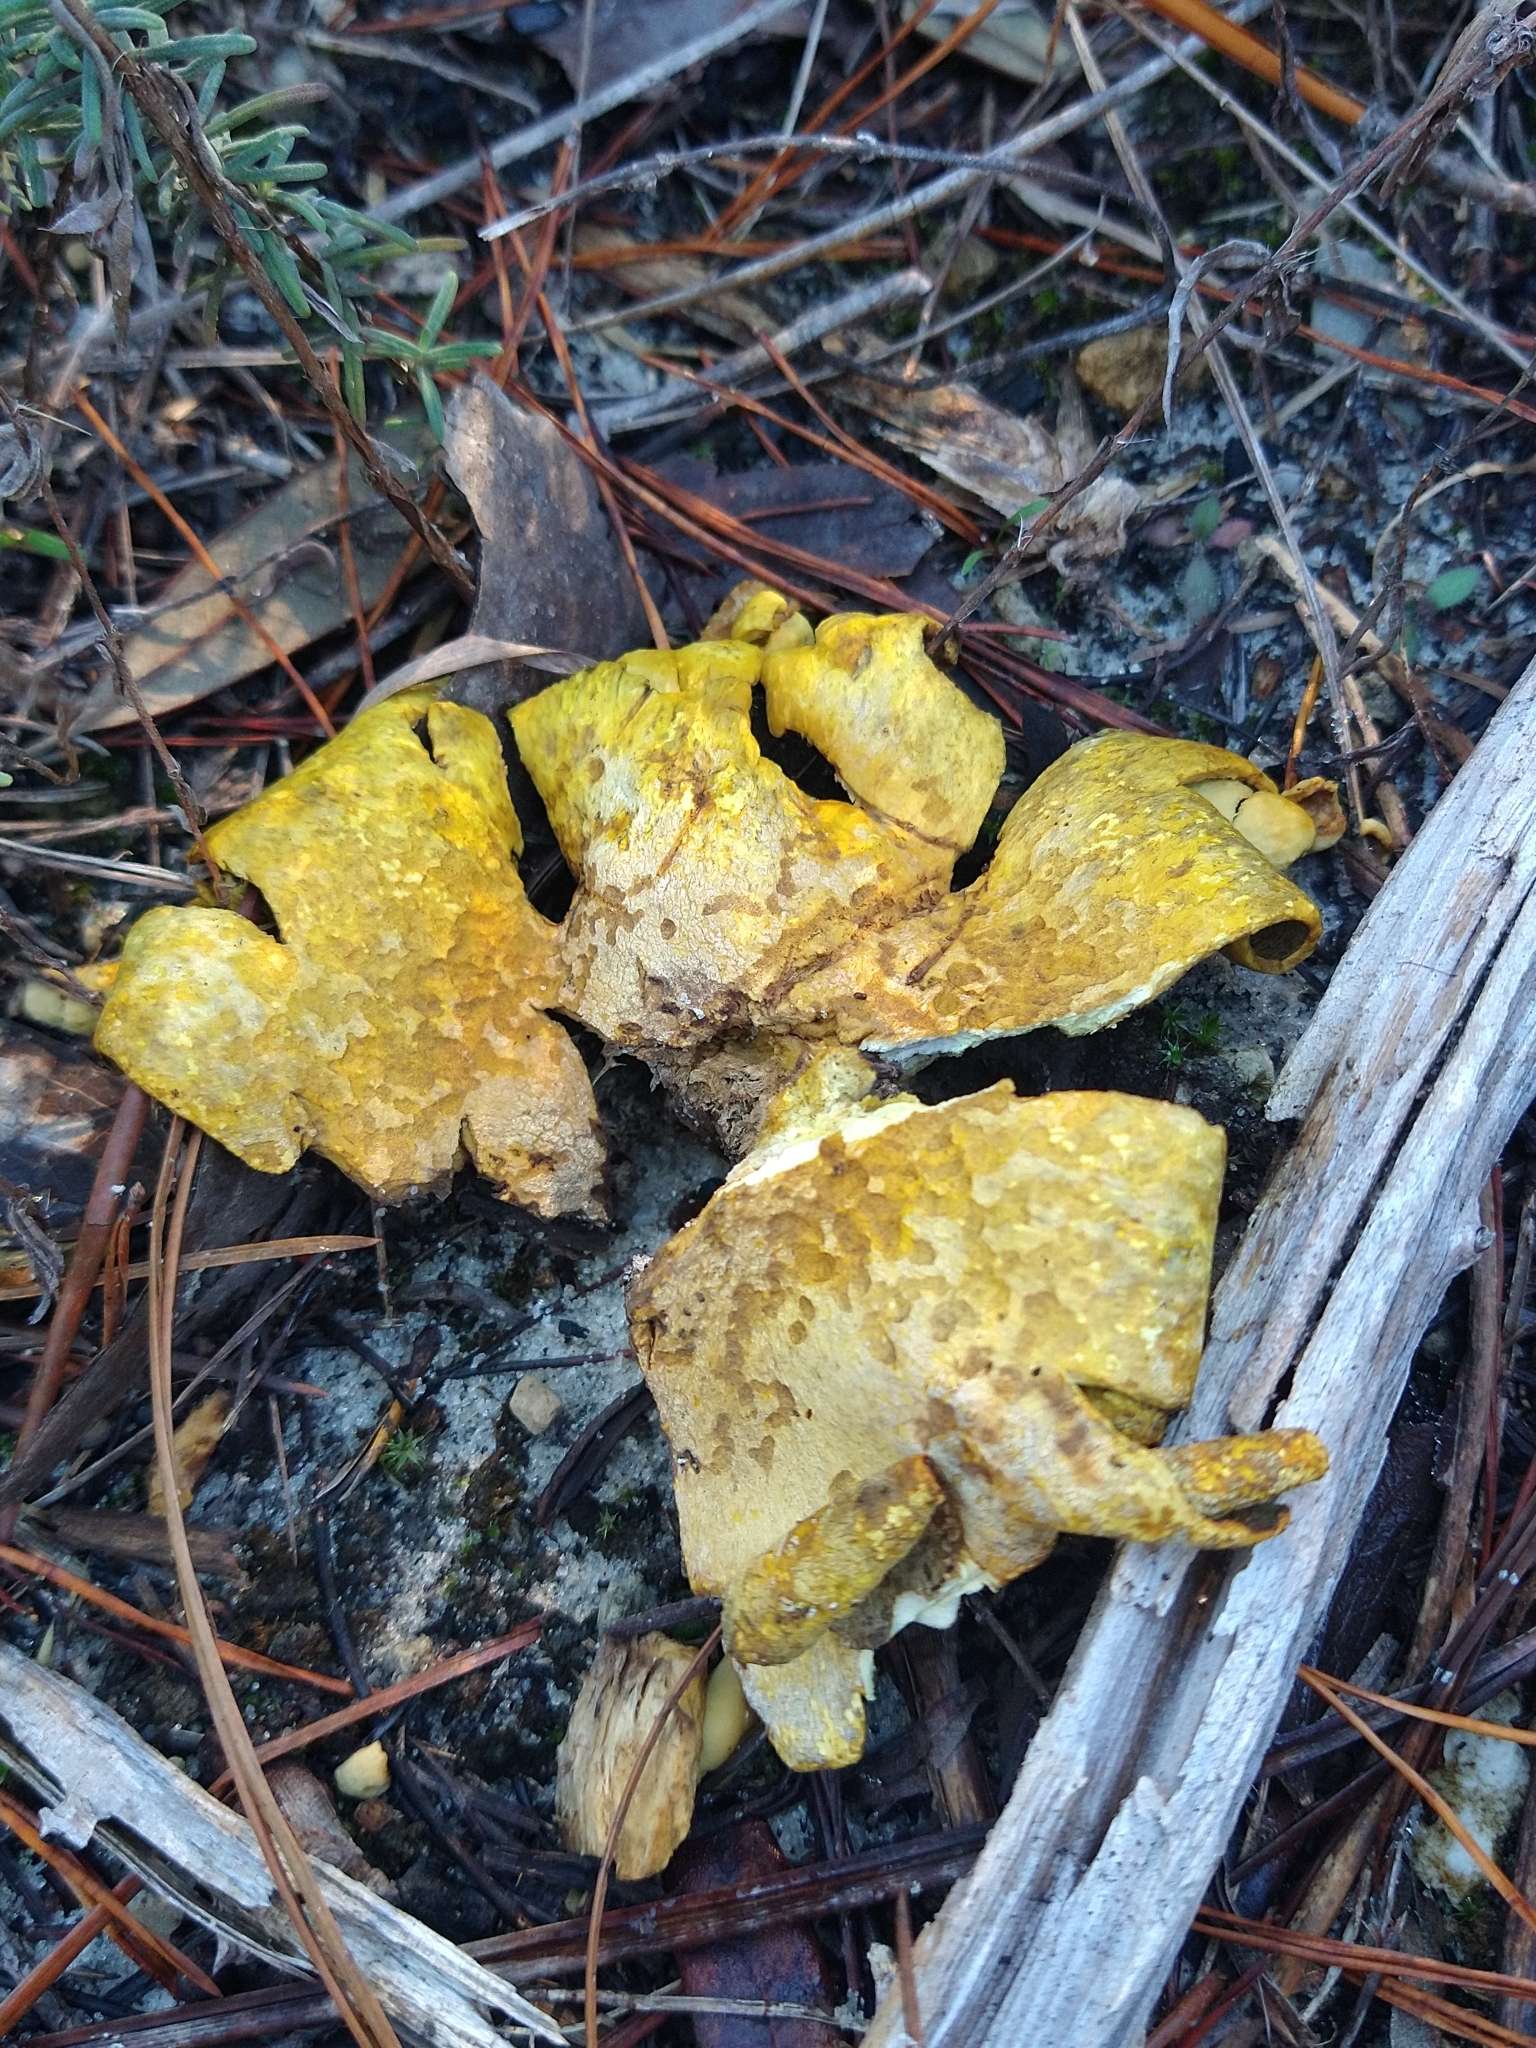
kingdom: Fungi
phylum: Basidiomycota
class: Agaricomycetes
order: Boletales
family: Sclerodermataceae
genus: Scleroderma
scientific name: Scleroderma citrinum
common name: Common earthball
